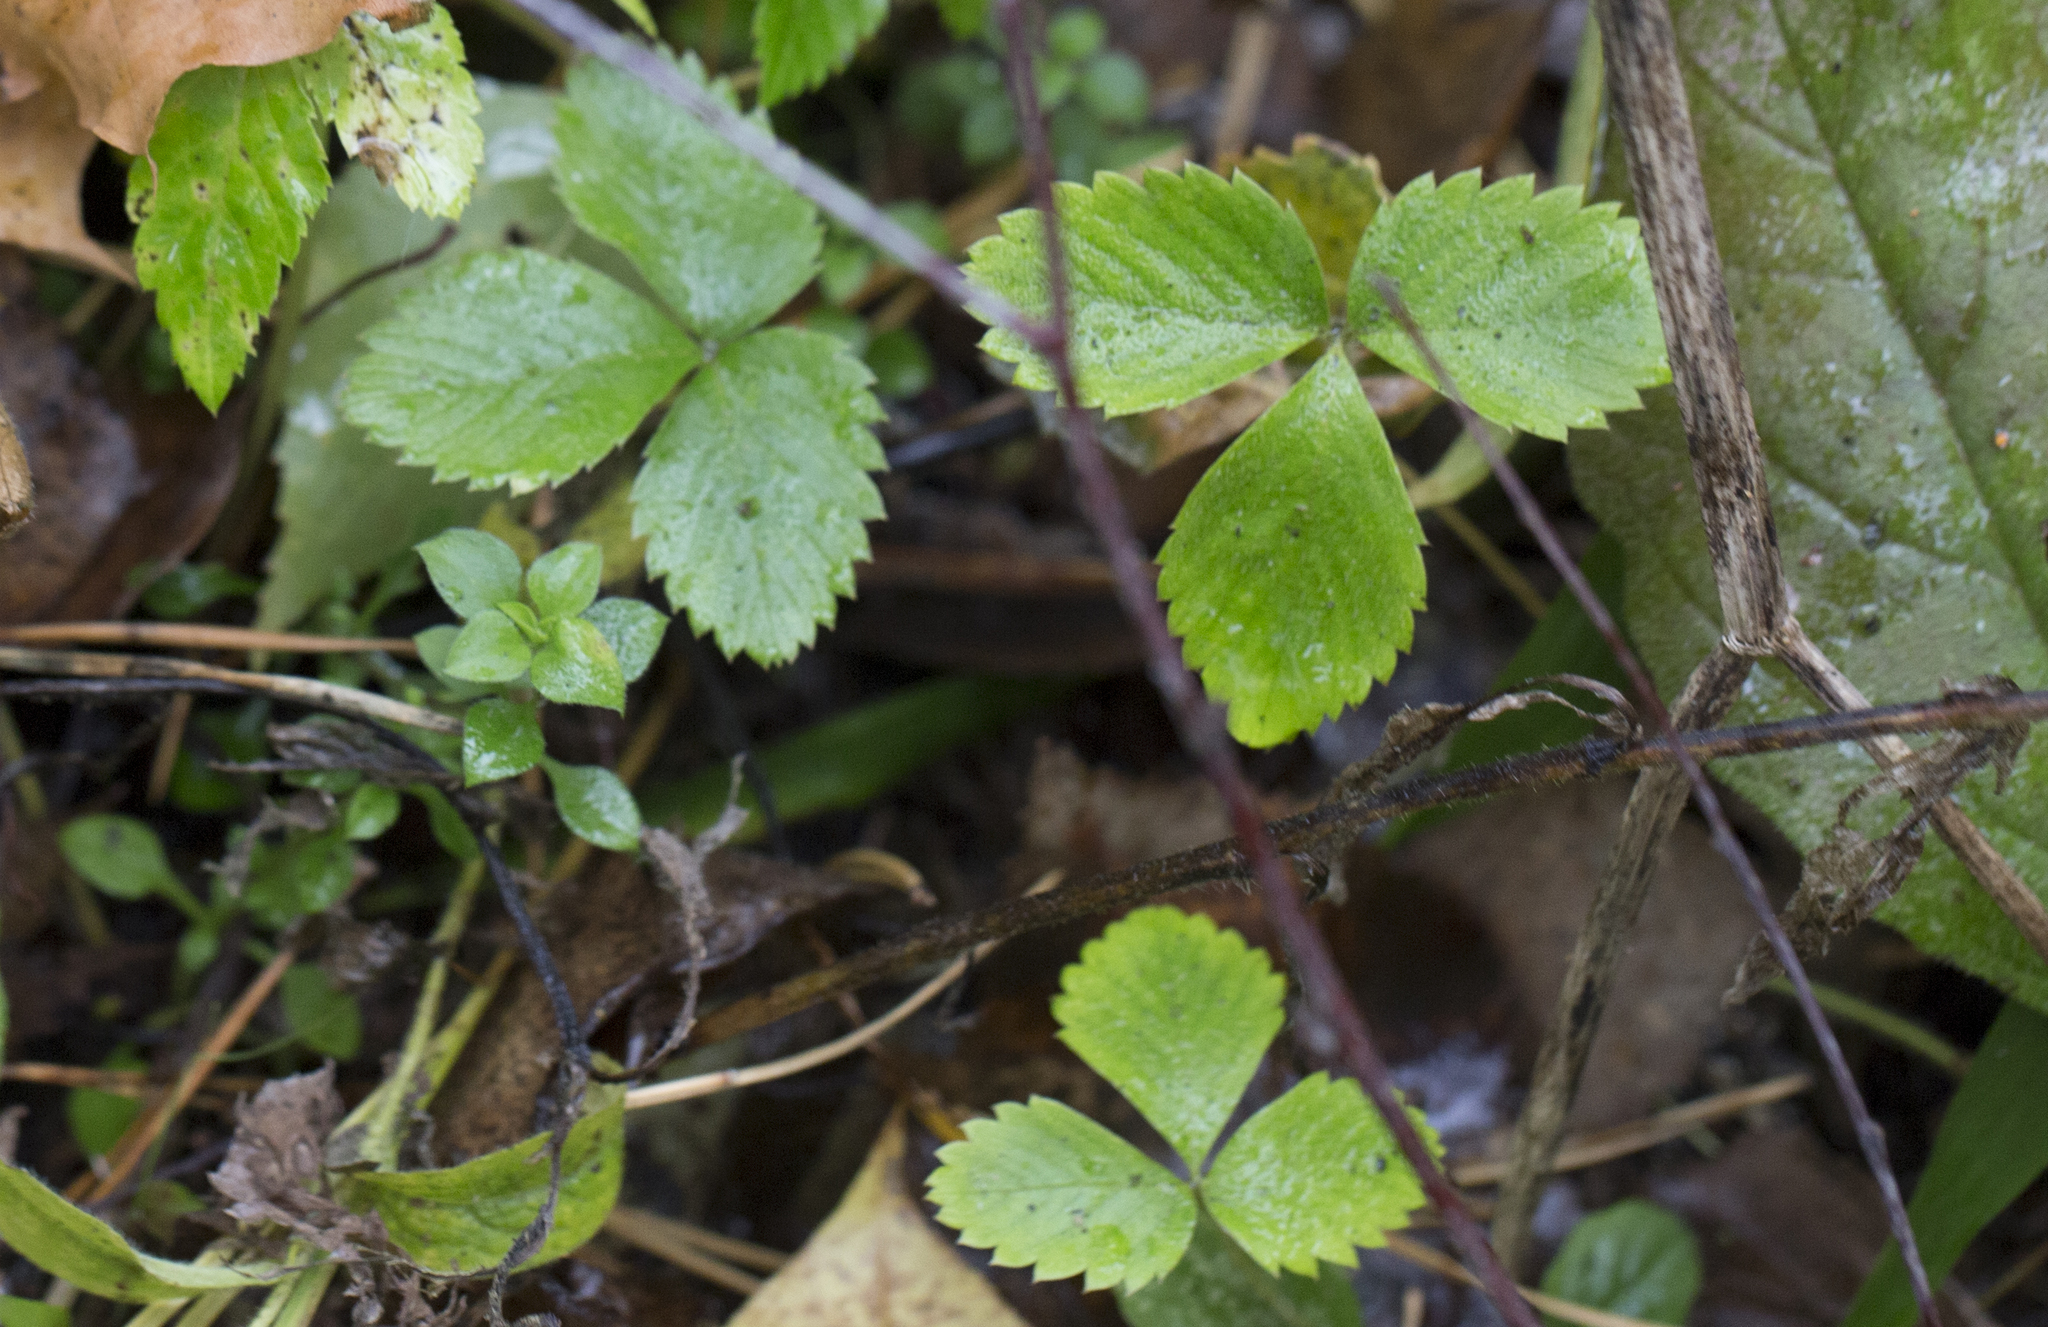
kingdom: Plantae
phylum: Tracheophyta
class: Magnoliopsida
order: Rosales
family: Rosaceae
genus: Fragaria
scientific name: Fragaria vesca
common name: Wild strawberry
